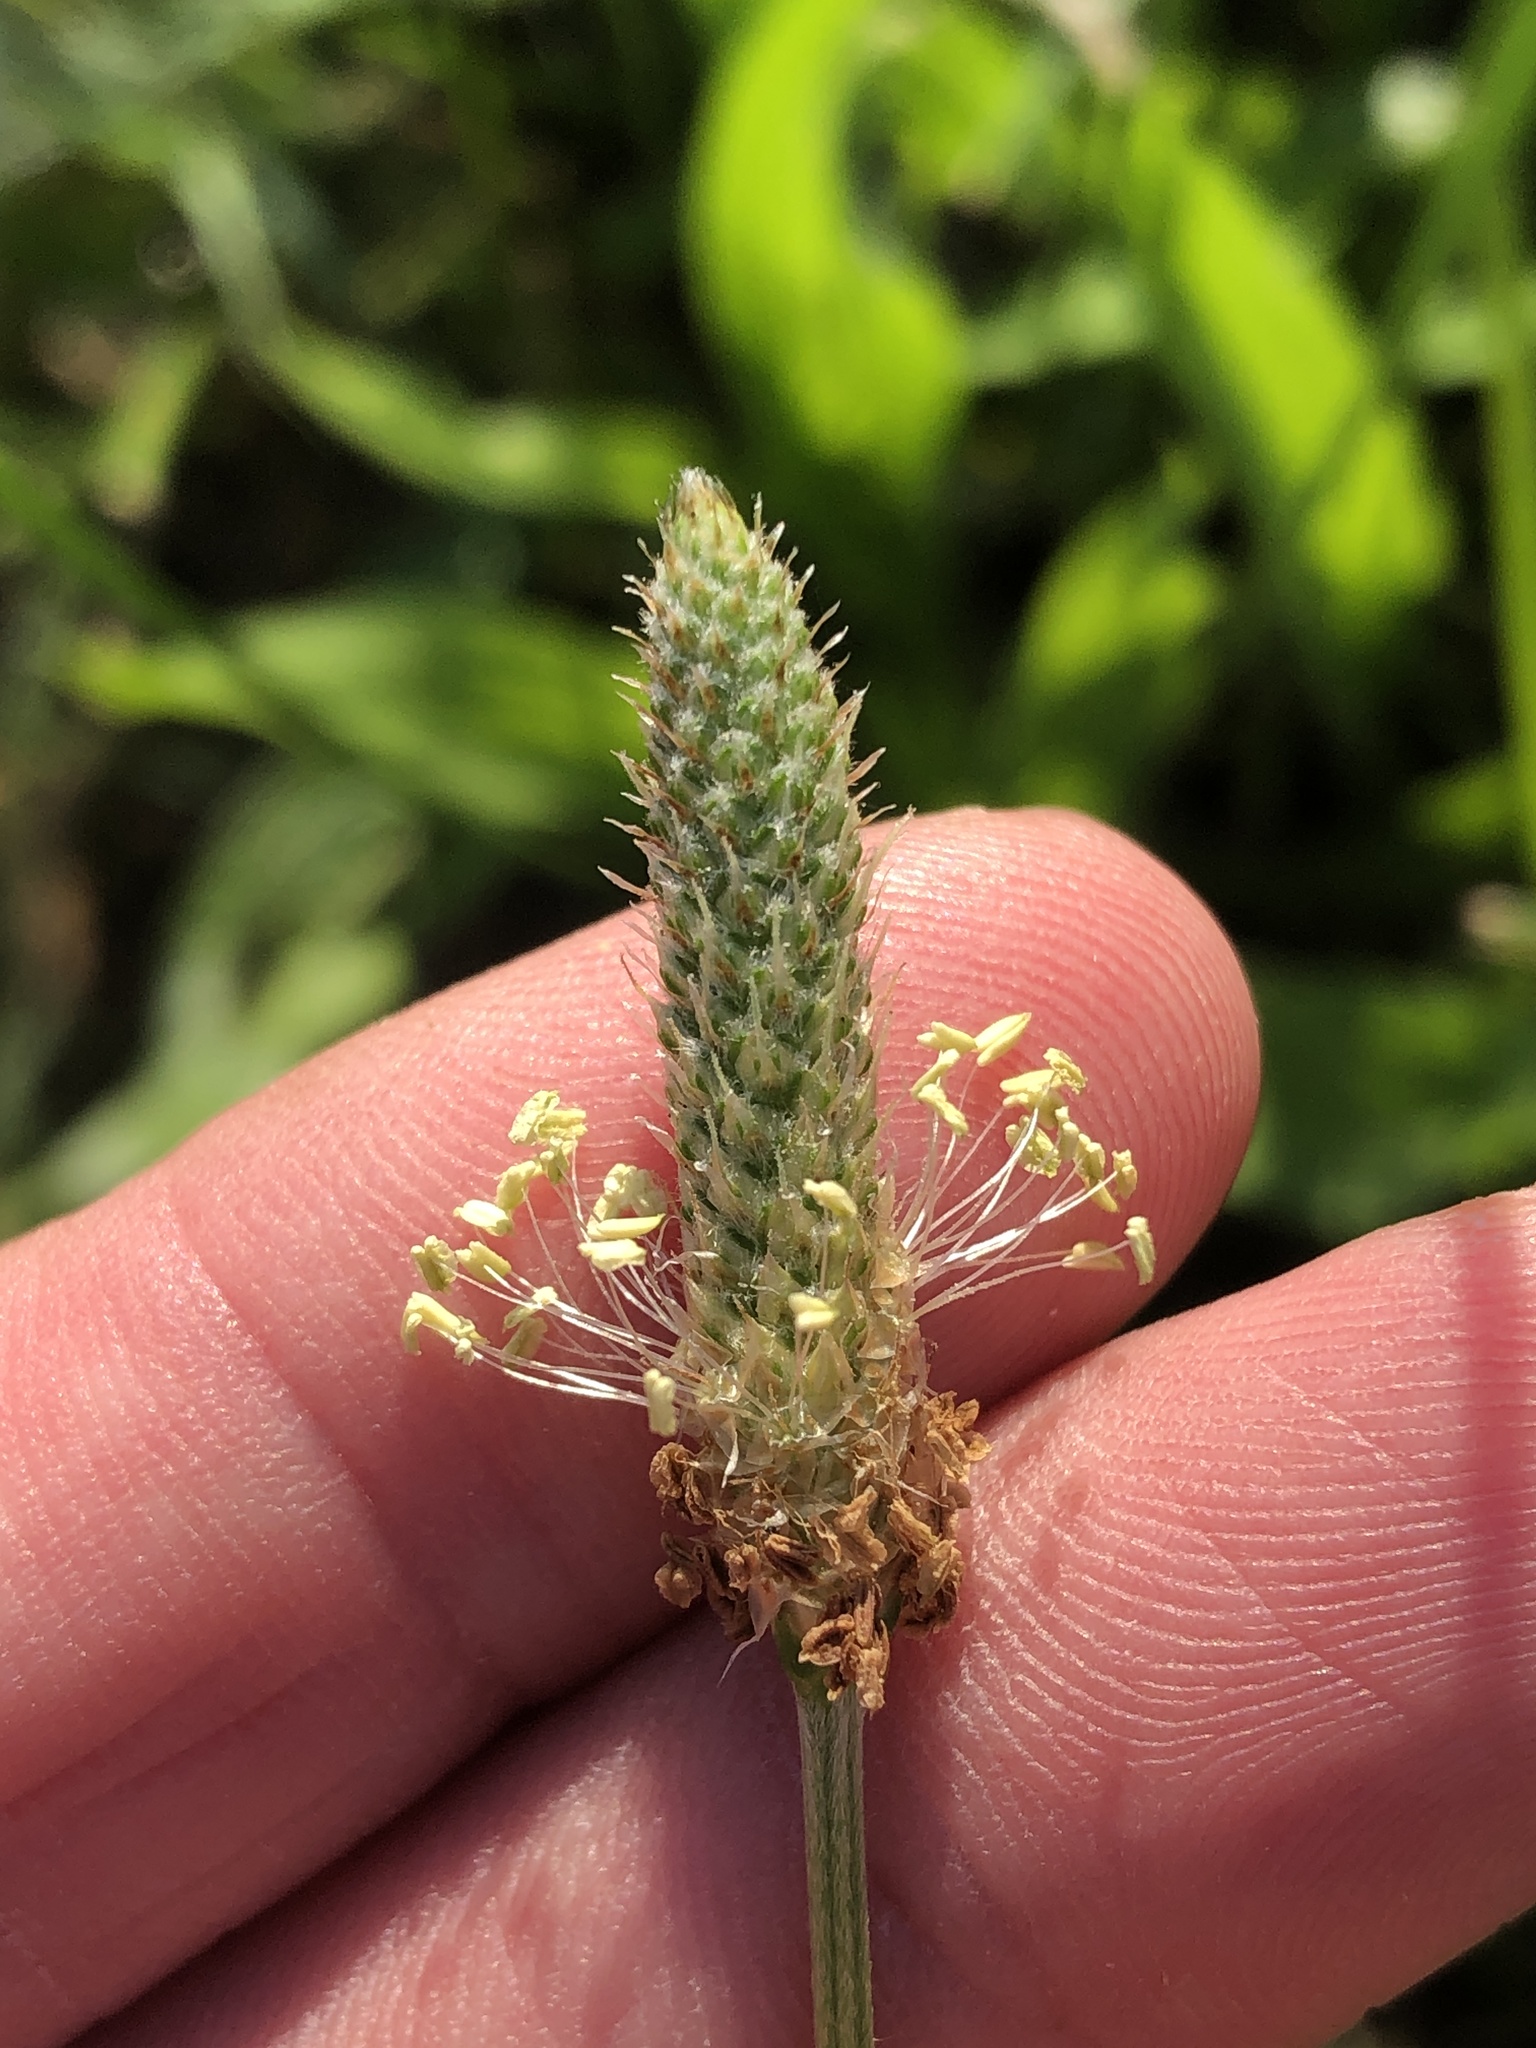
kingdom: Plantae
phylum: Tracheophyta
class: Magnoliopsida
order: Lamiales
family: Plantaginaceae
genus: Plantago
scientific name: Plantago lanceolata
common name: Ribwort plantain
